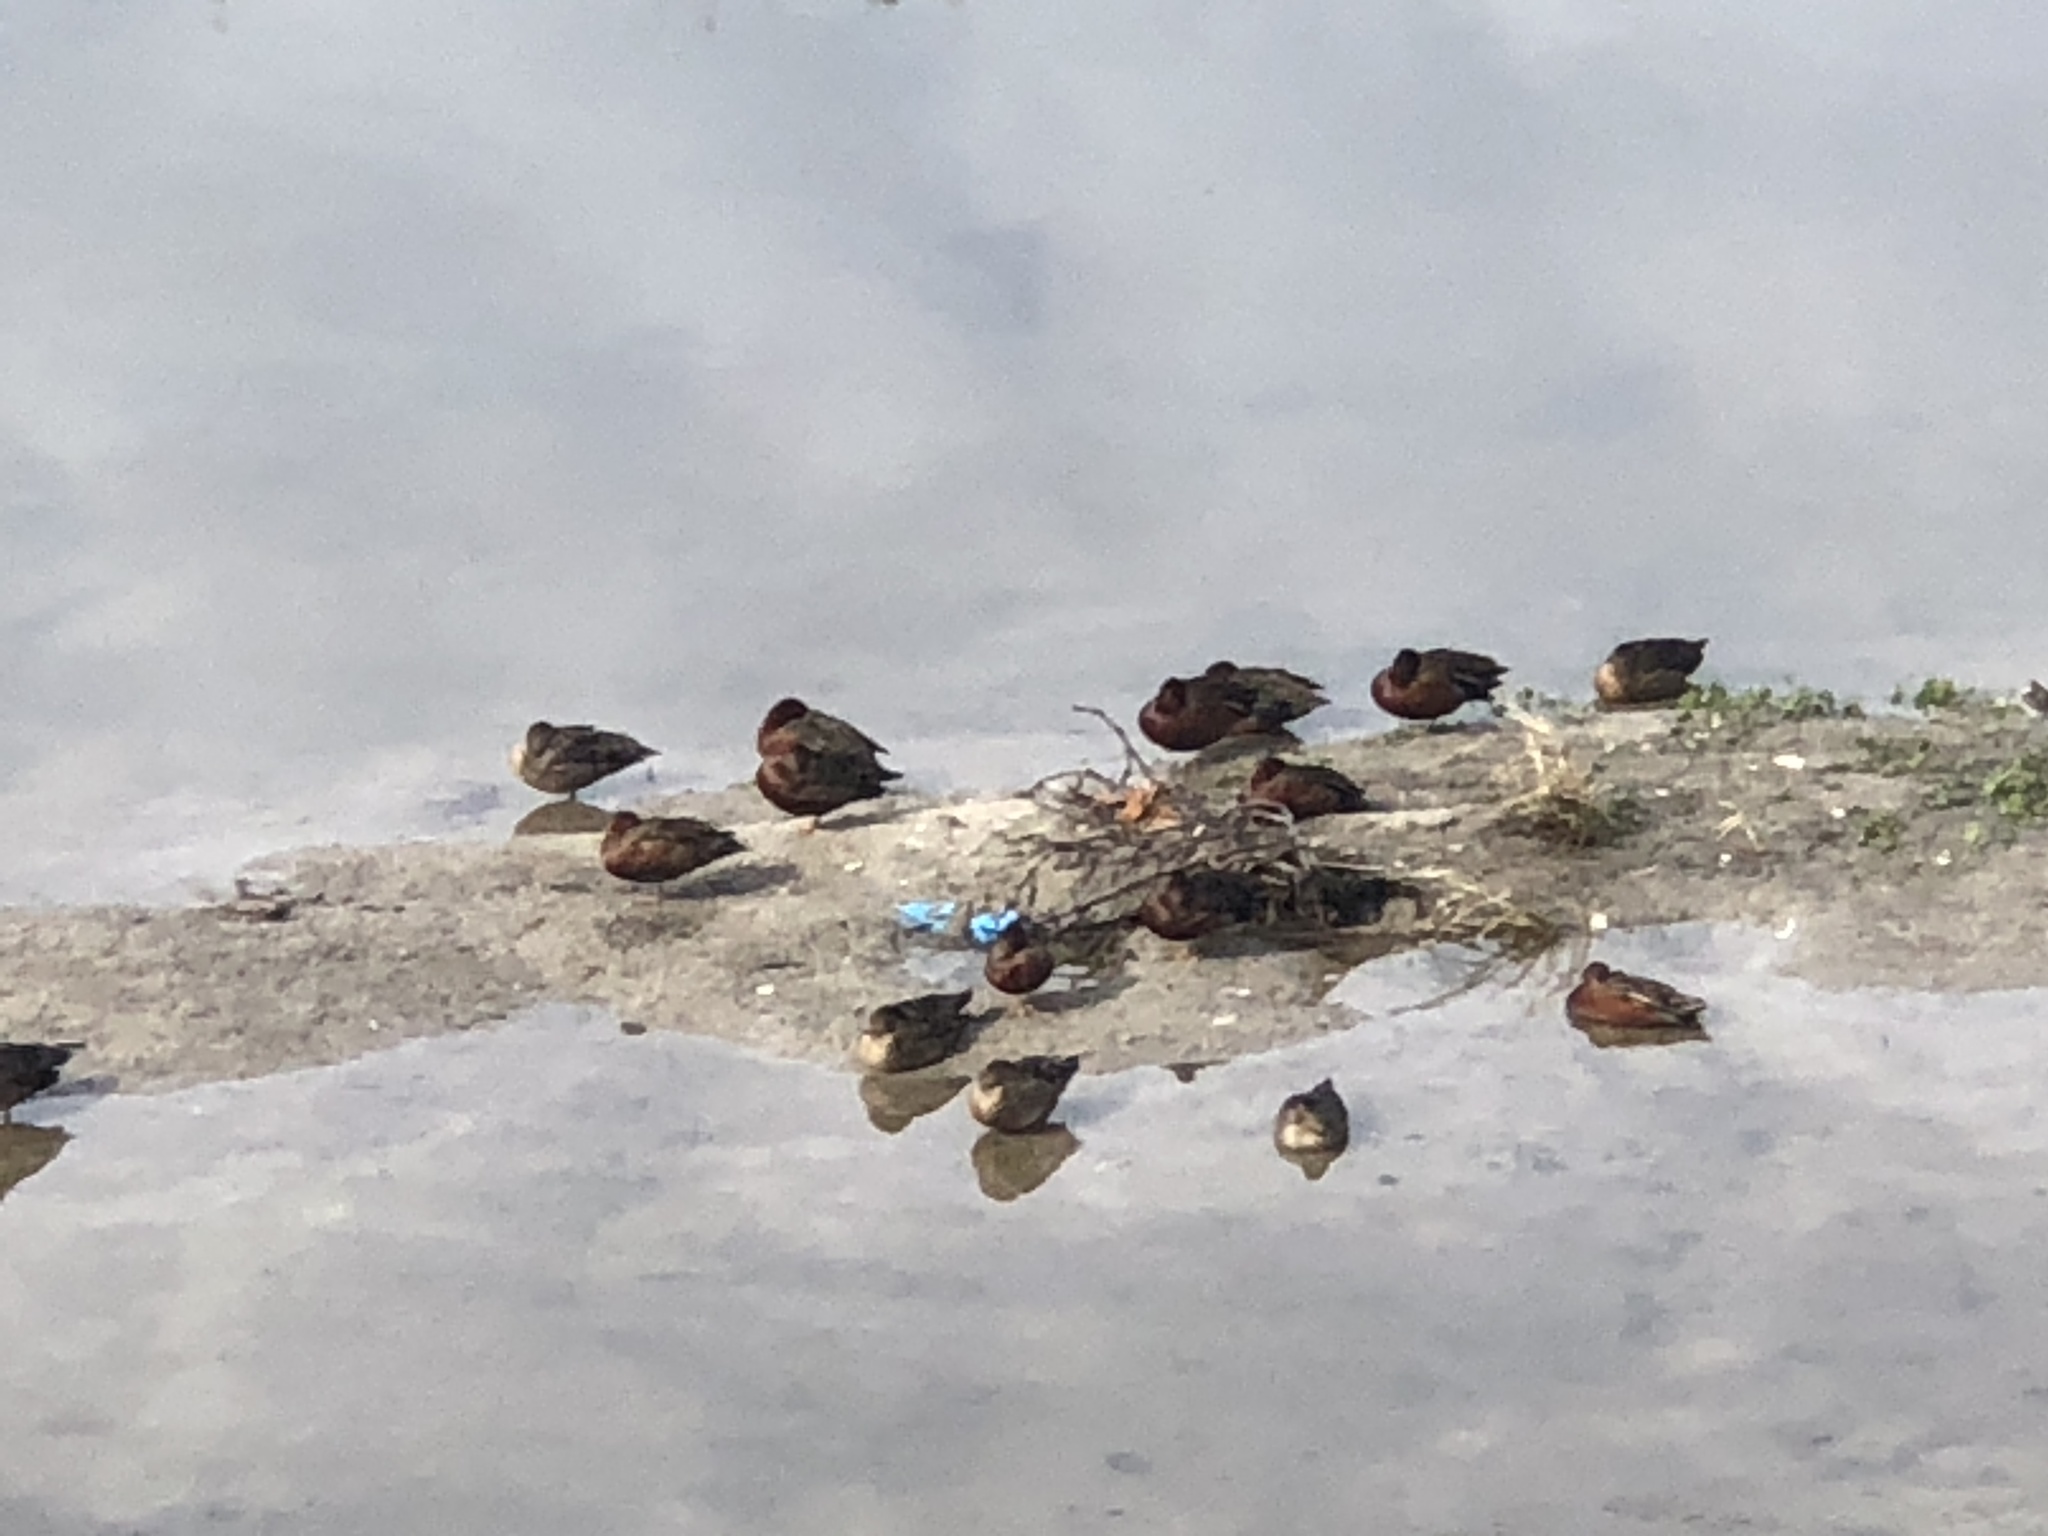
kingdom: Animalia
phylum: Chordata
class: Aves
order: Anseriformes
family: Anatidae
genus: Spatula
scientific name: Spatula cyanoptera
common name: Cinnamon teal
